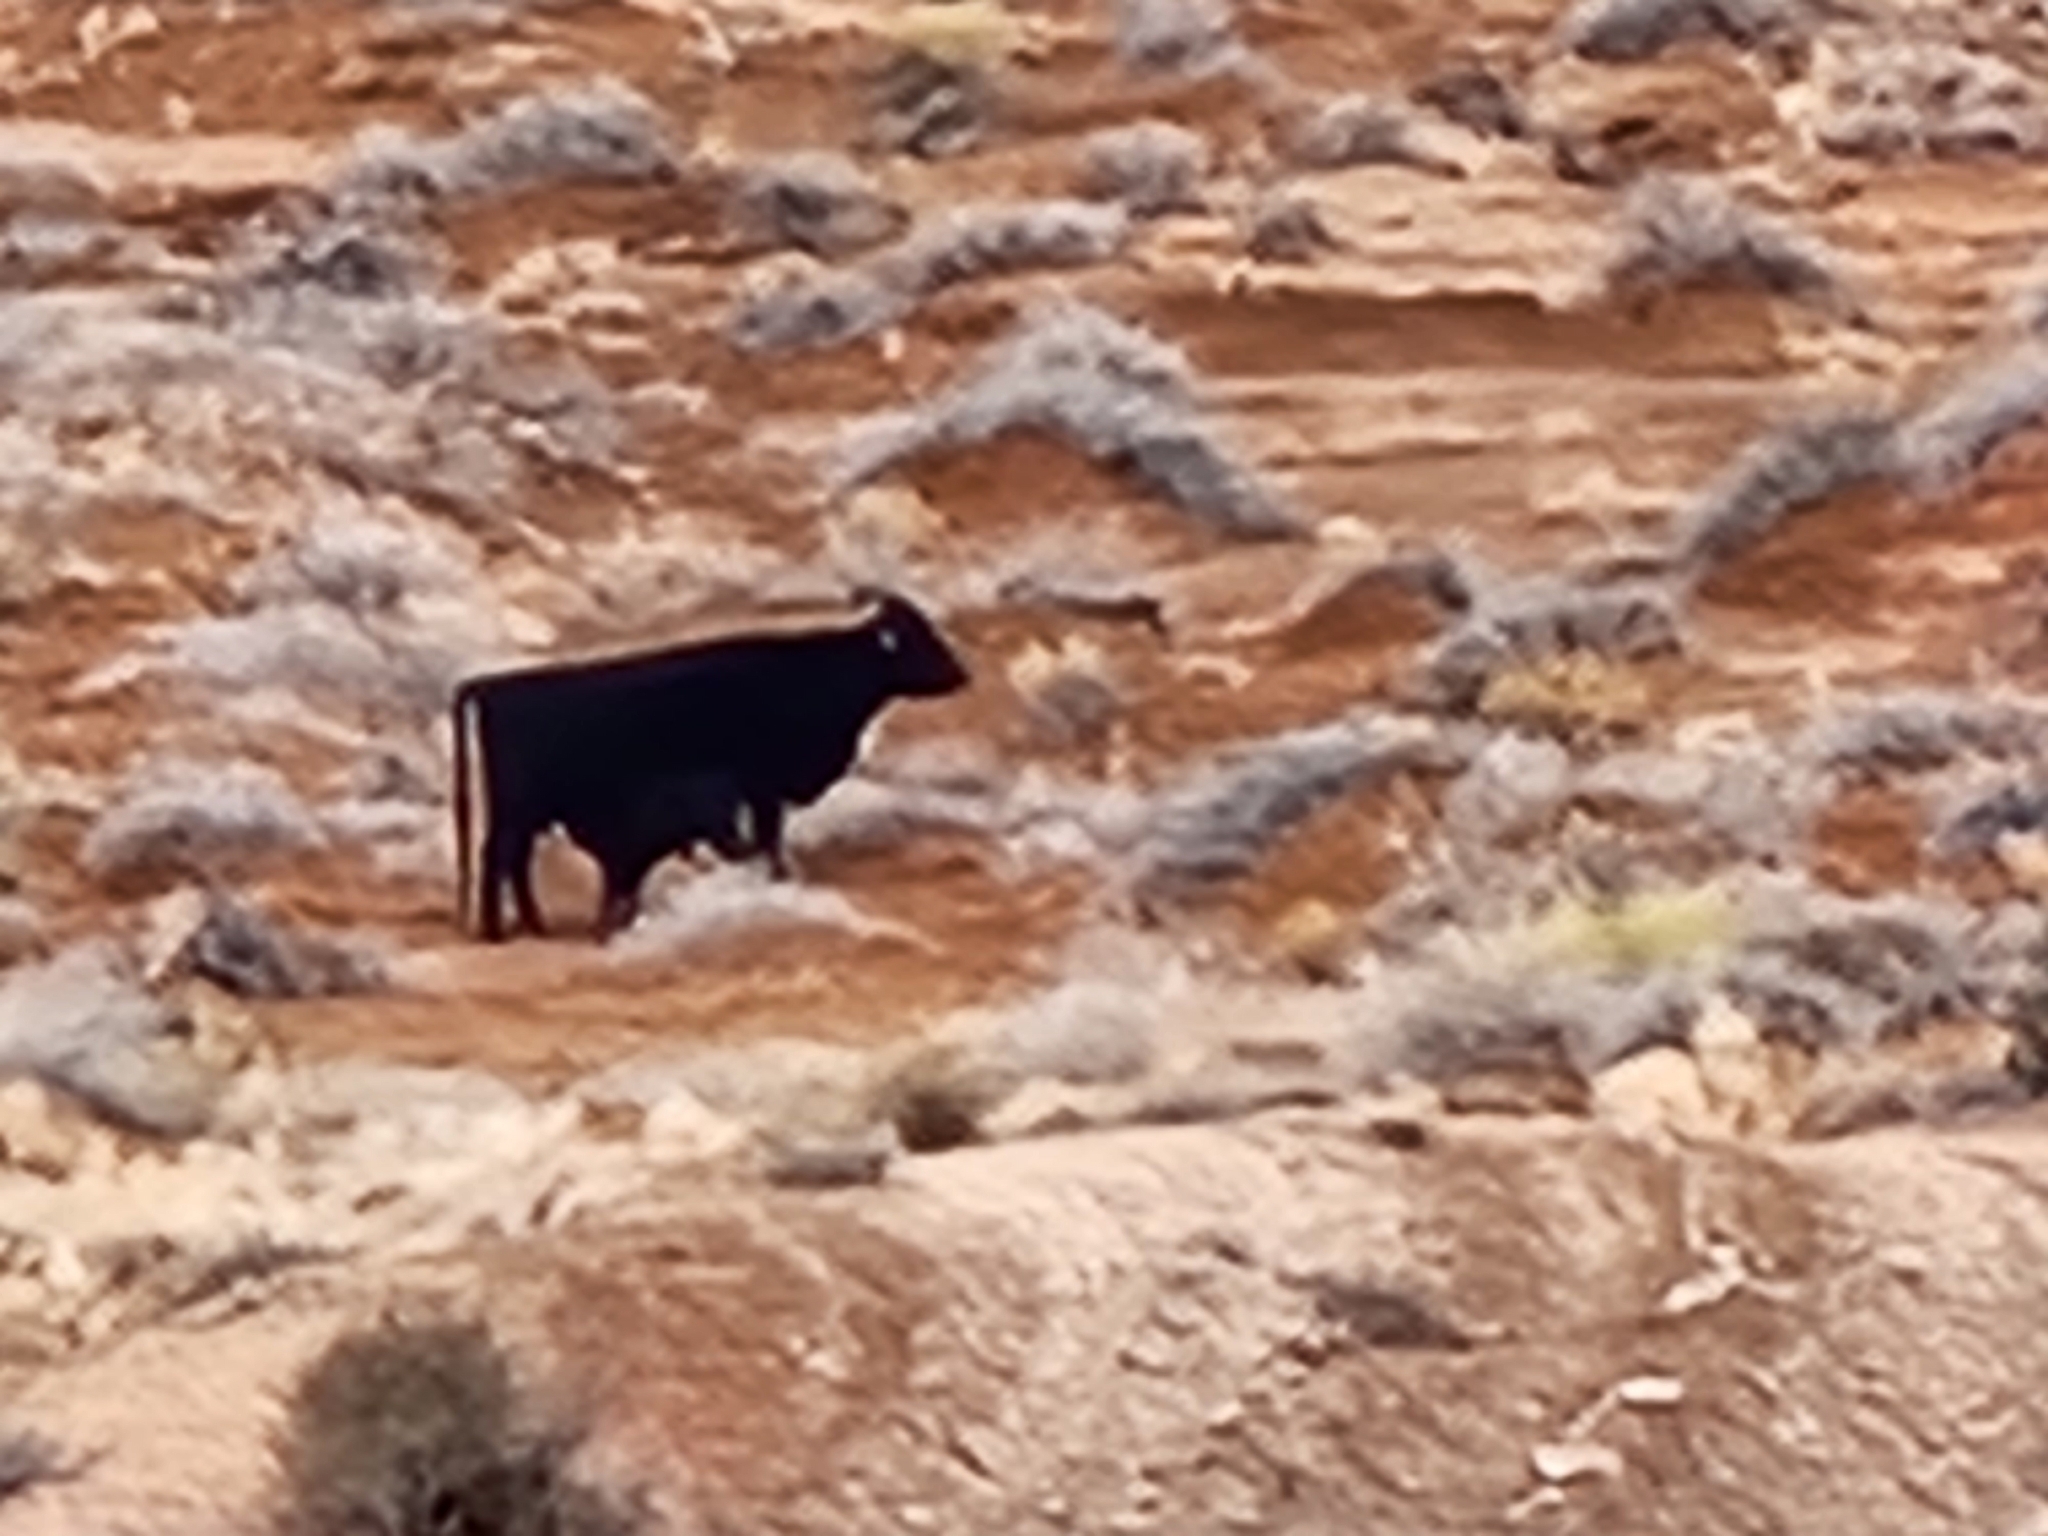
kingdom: Animalia
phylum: Chordata
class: Mammalia
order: Artiodactyla
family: Bovidae
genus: Bos
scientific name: Bos taurus
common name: Domesticated cattle
